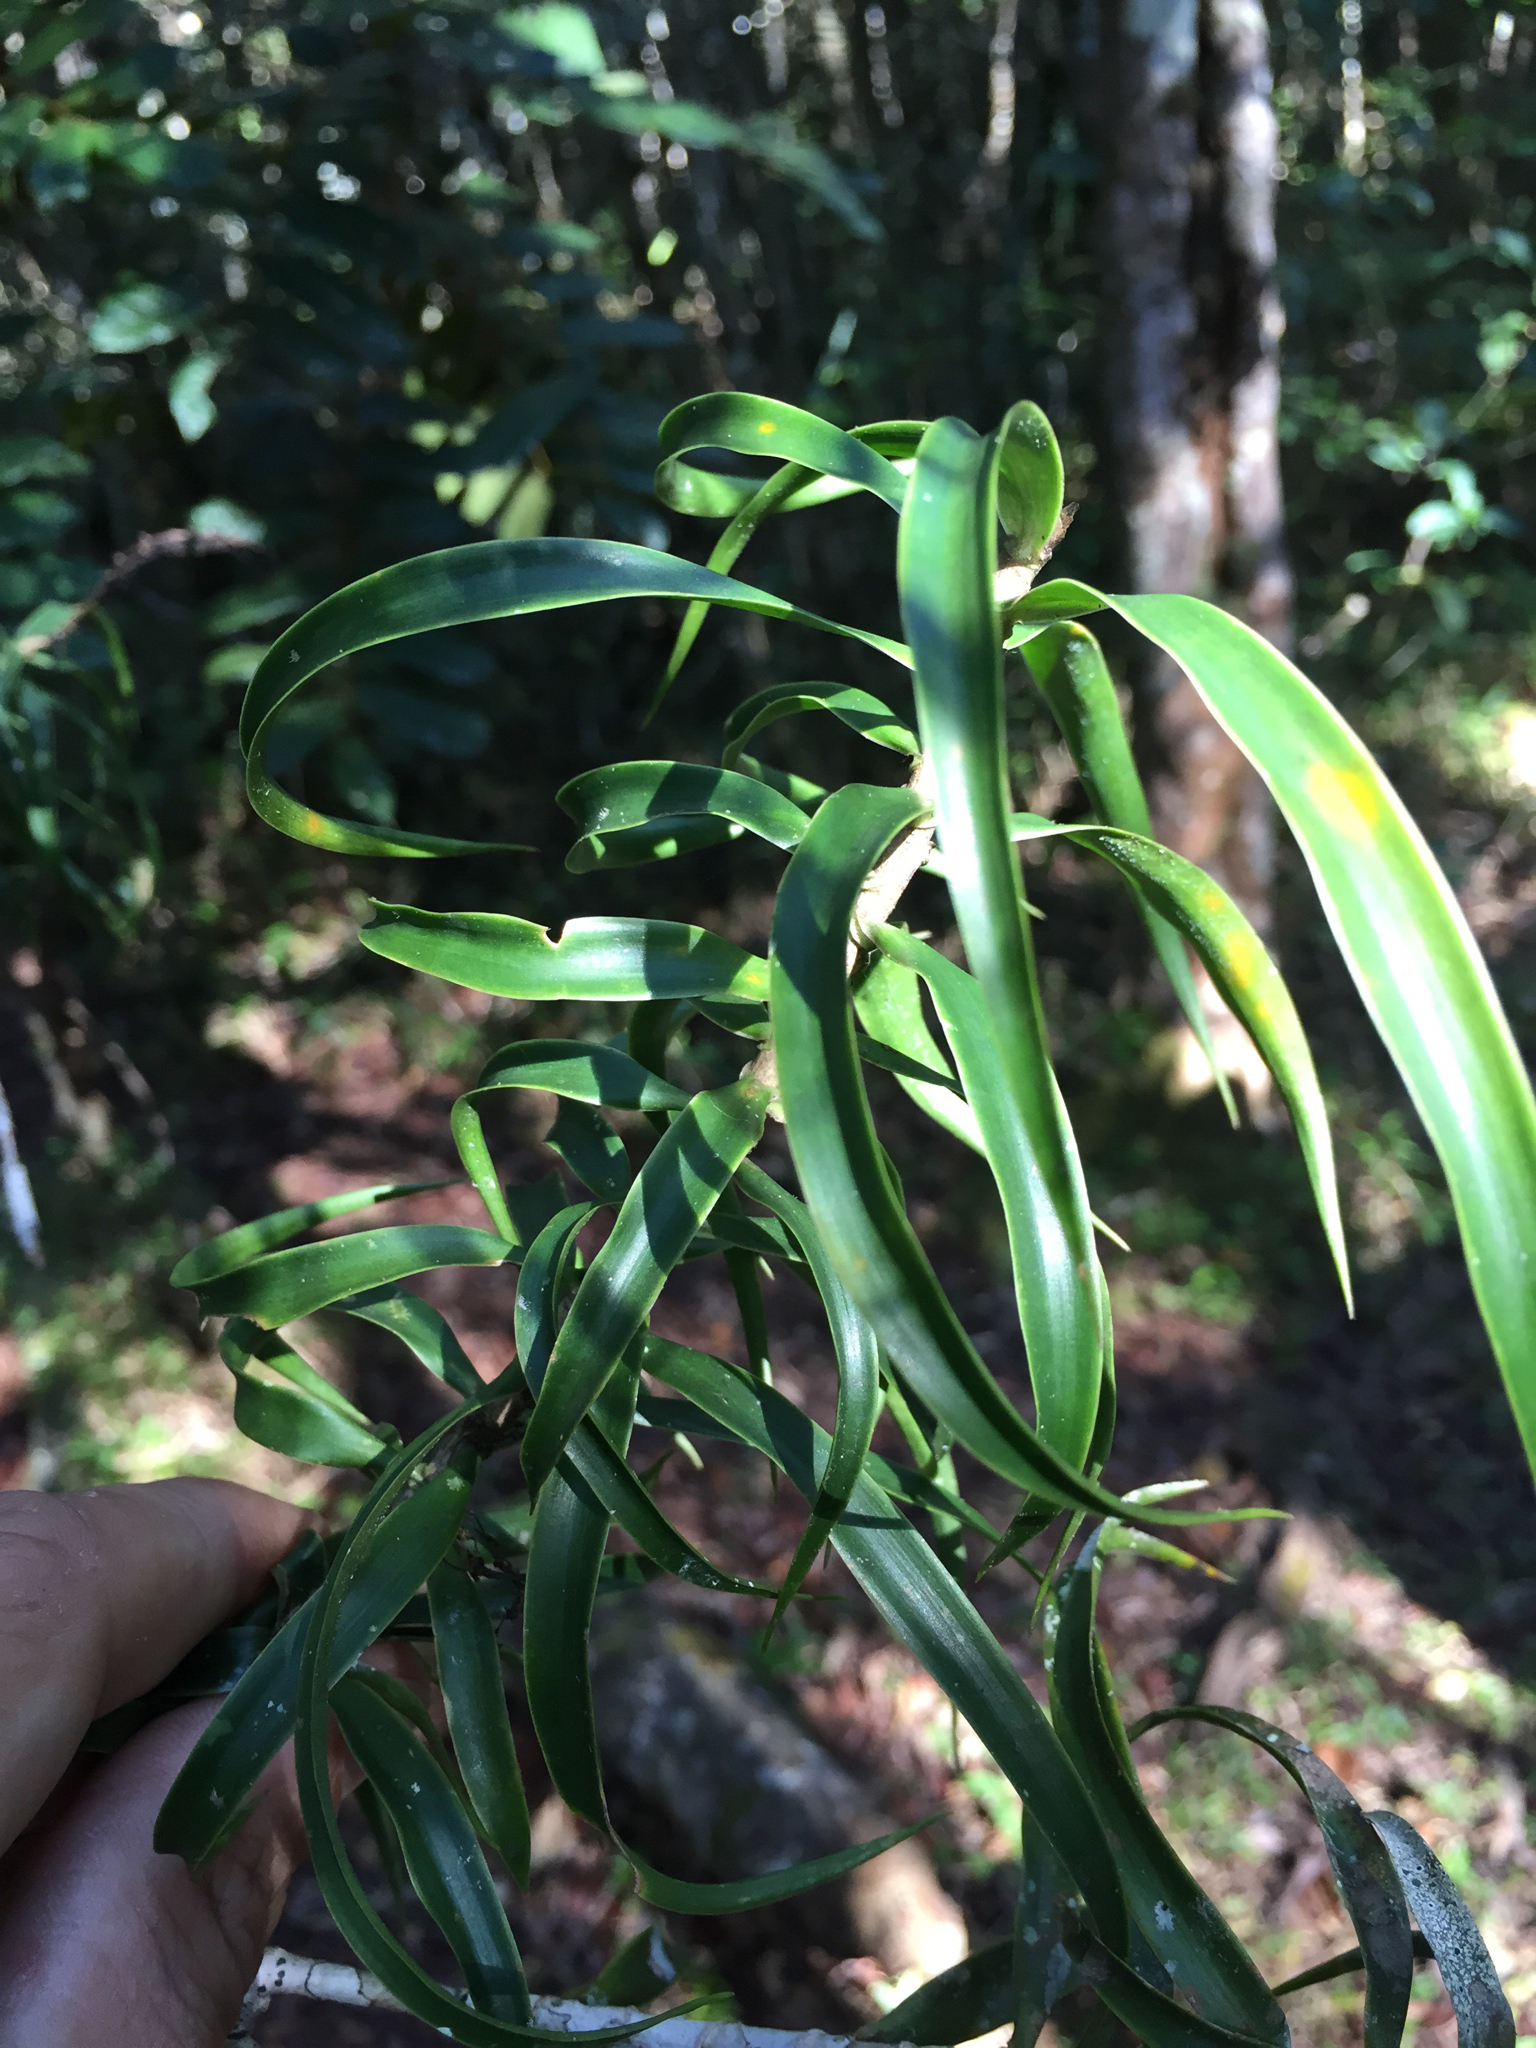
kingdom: Plantae
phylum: Tracheophyta
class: Liliopsida
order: Asparagales
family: Asparagaceae
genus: Dracaena
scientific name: Dracaena reflexa
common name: Song-of-india
